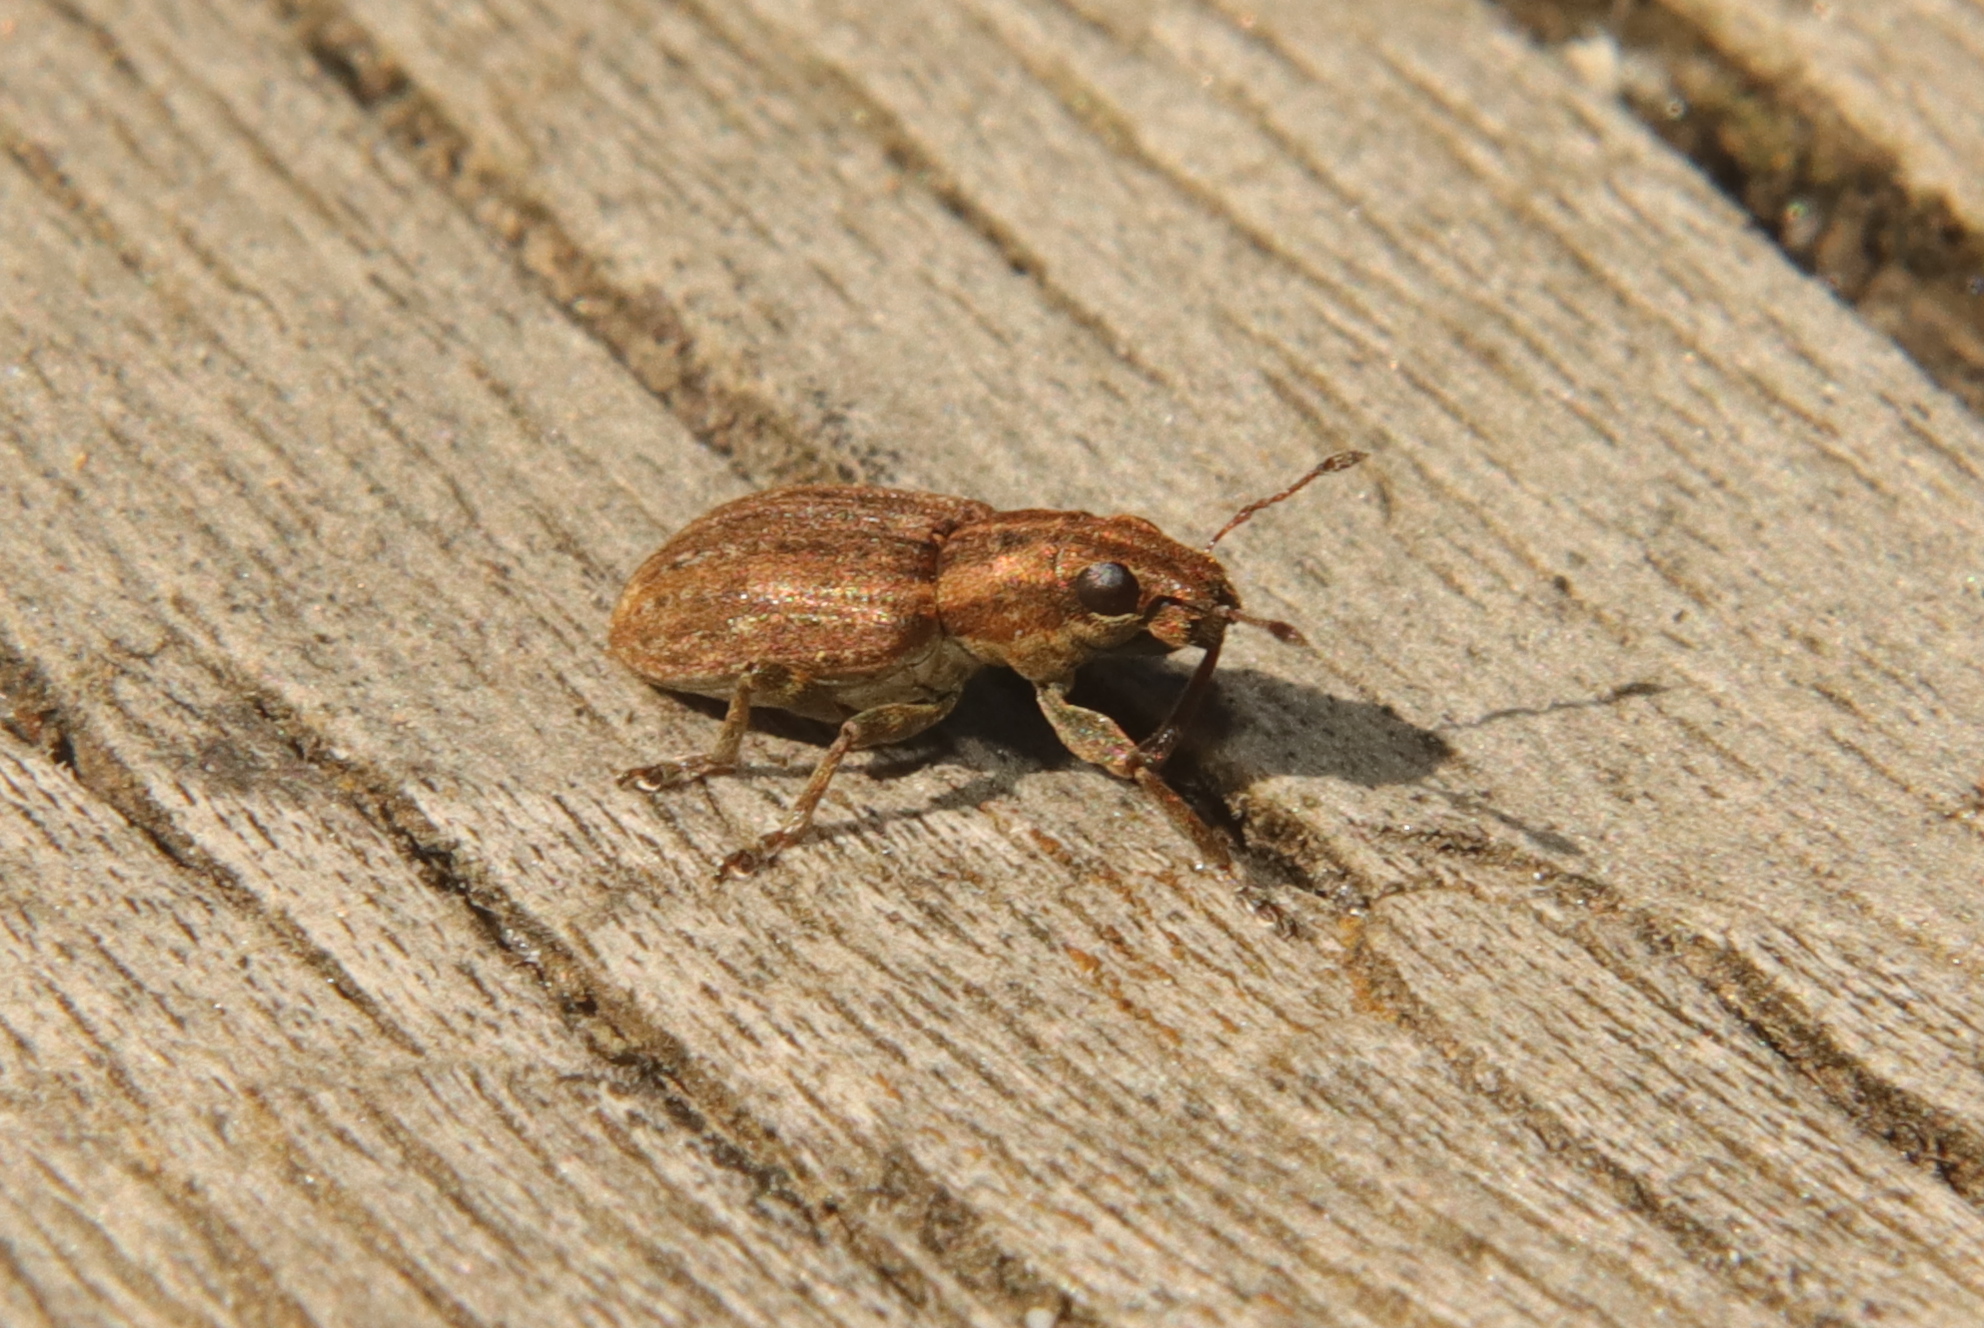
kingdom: Animalia
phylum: Arthropoda
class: Insecta
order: Coleoptera
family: Curculionidae
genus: Sitona
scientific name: Sitona obsoletus
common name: Weevil
